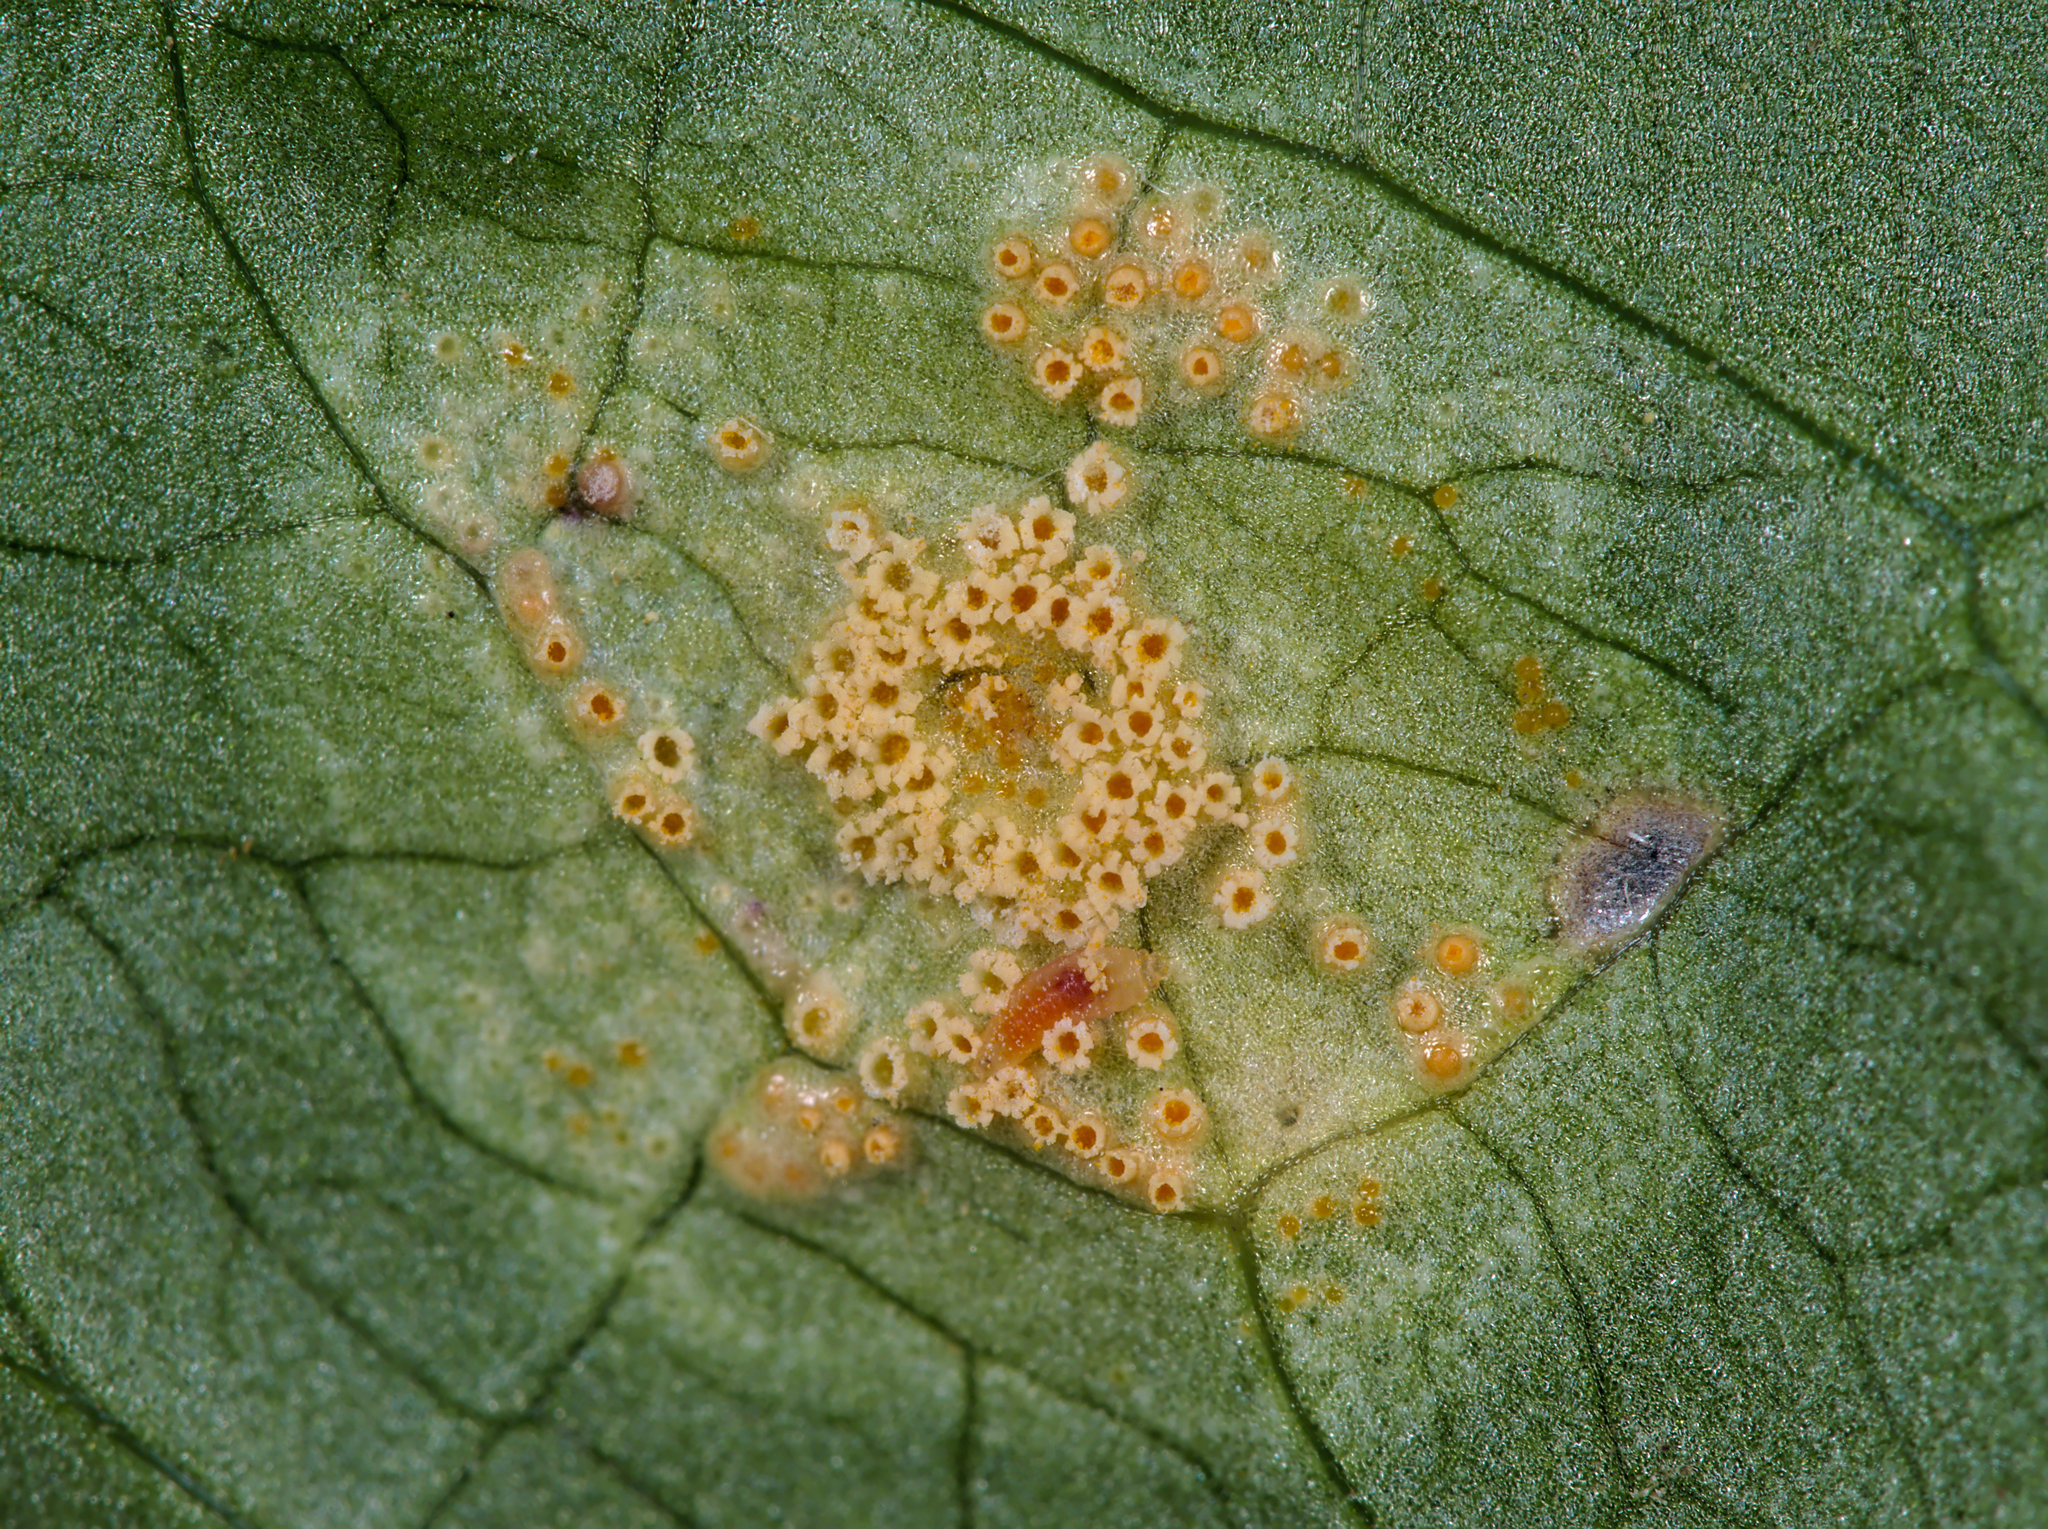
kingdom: Fungi
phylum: Basidiomycota
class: Pucciniomycetes
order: Pucciniales
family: Pucciniaceae
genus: Puccinia
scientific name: Puccinia sessilis
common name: Arum rust
